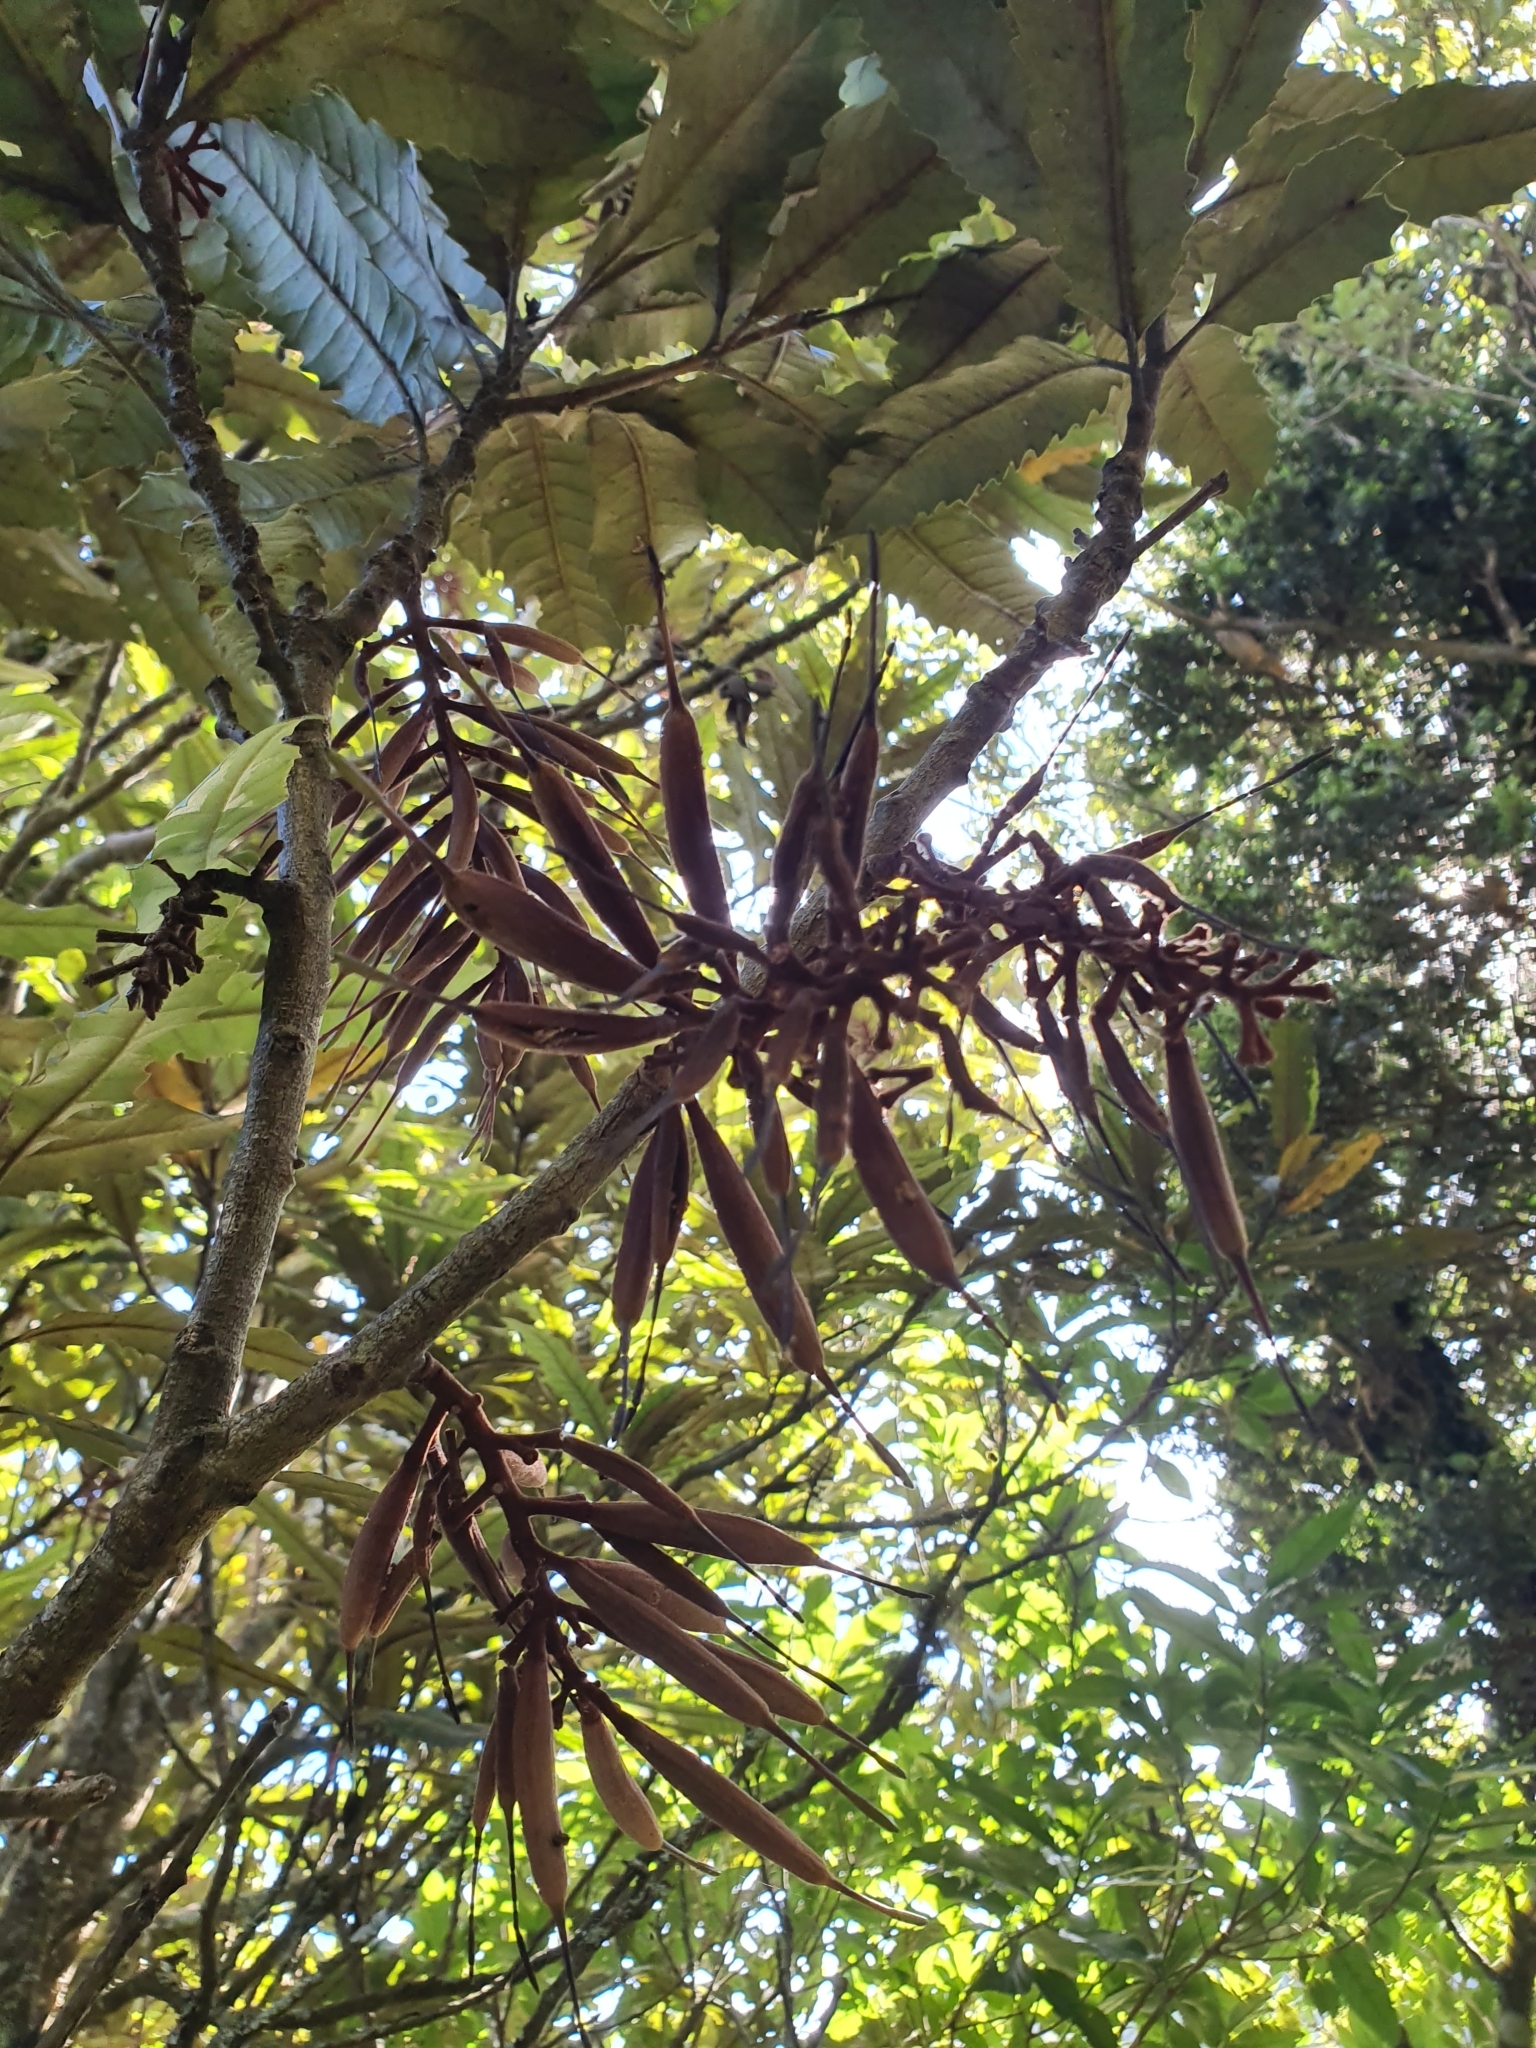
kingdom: Plantae
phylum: Tracheophyta
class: Magnoliopsida
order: Proteales
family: Proteaceae
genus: Knightia
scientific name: Knightia excelsa
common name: New zealand-honeysuckle
